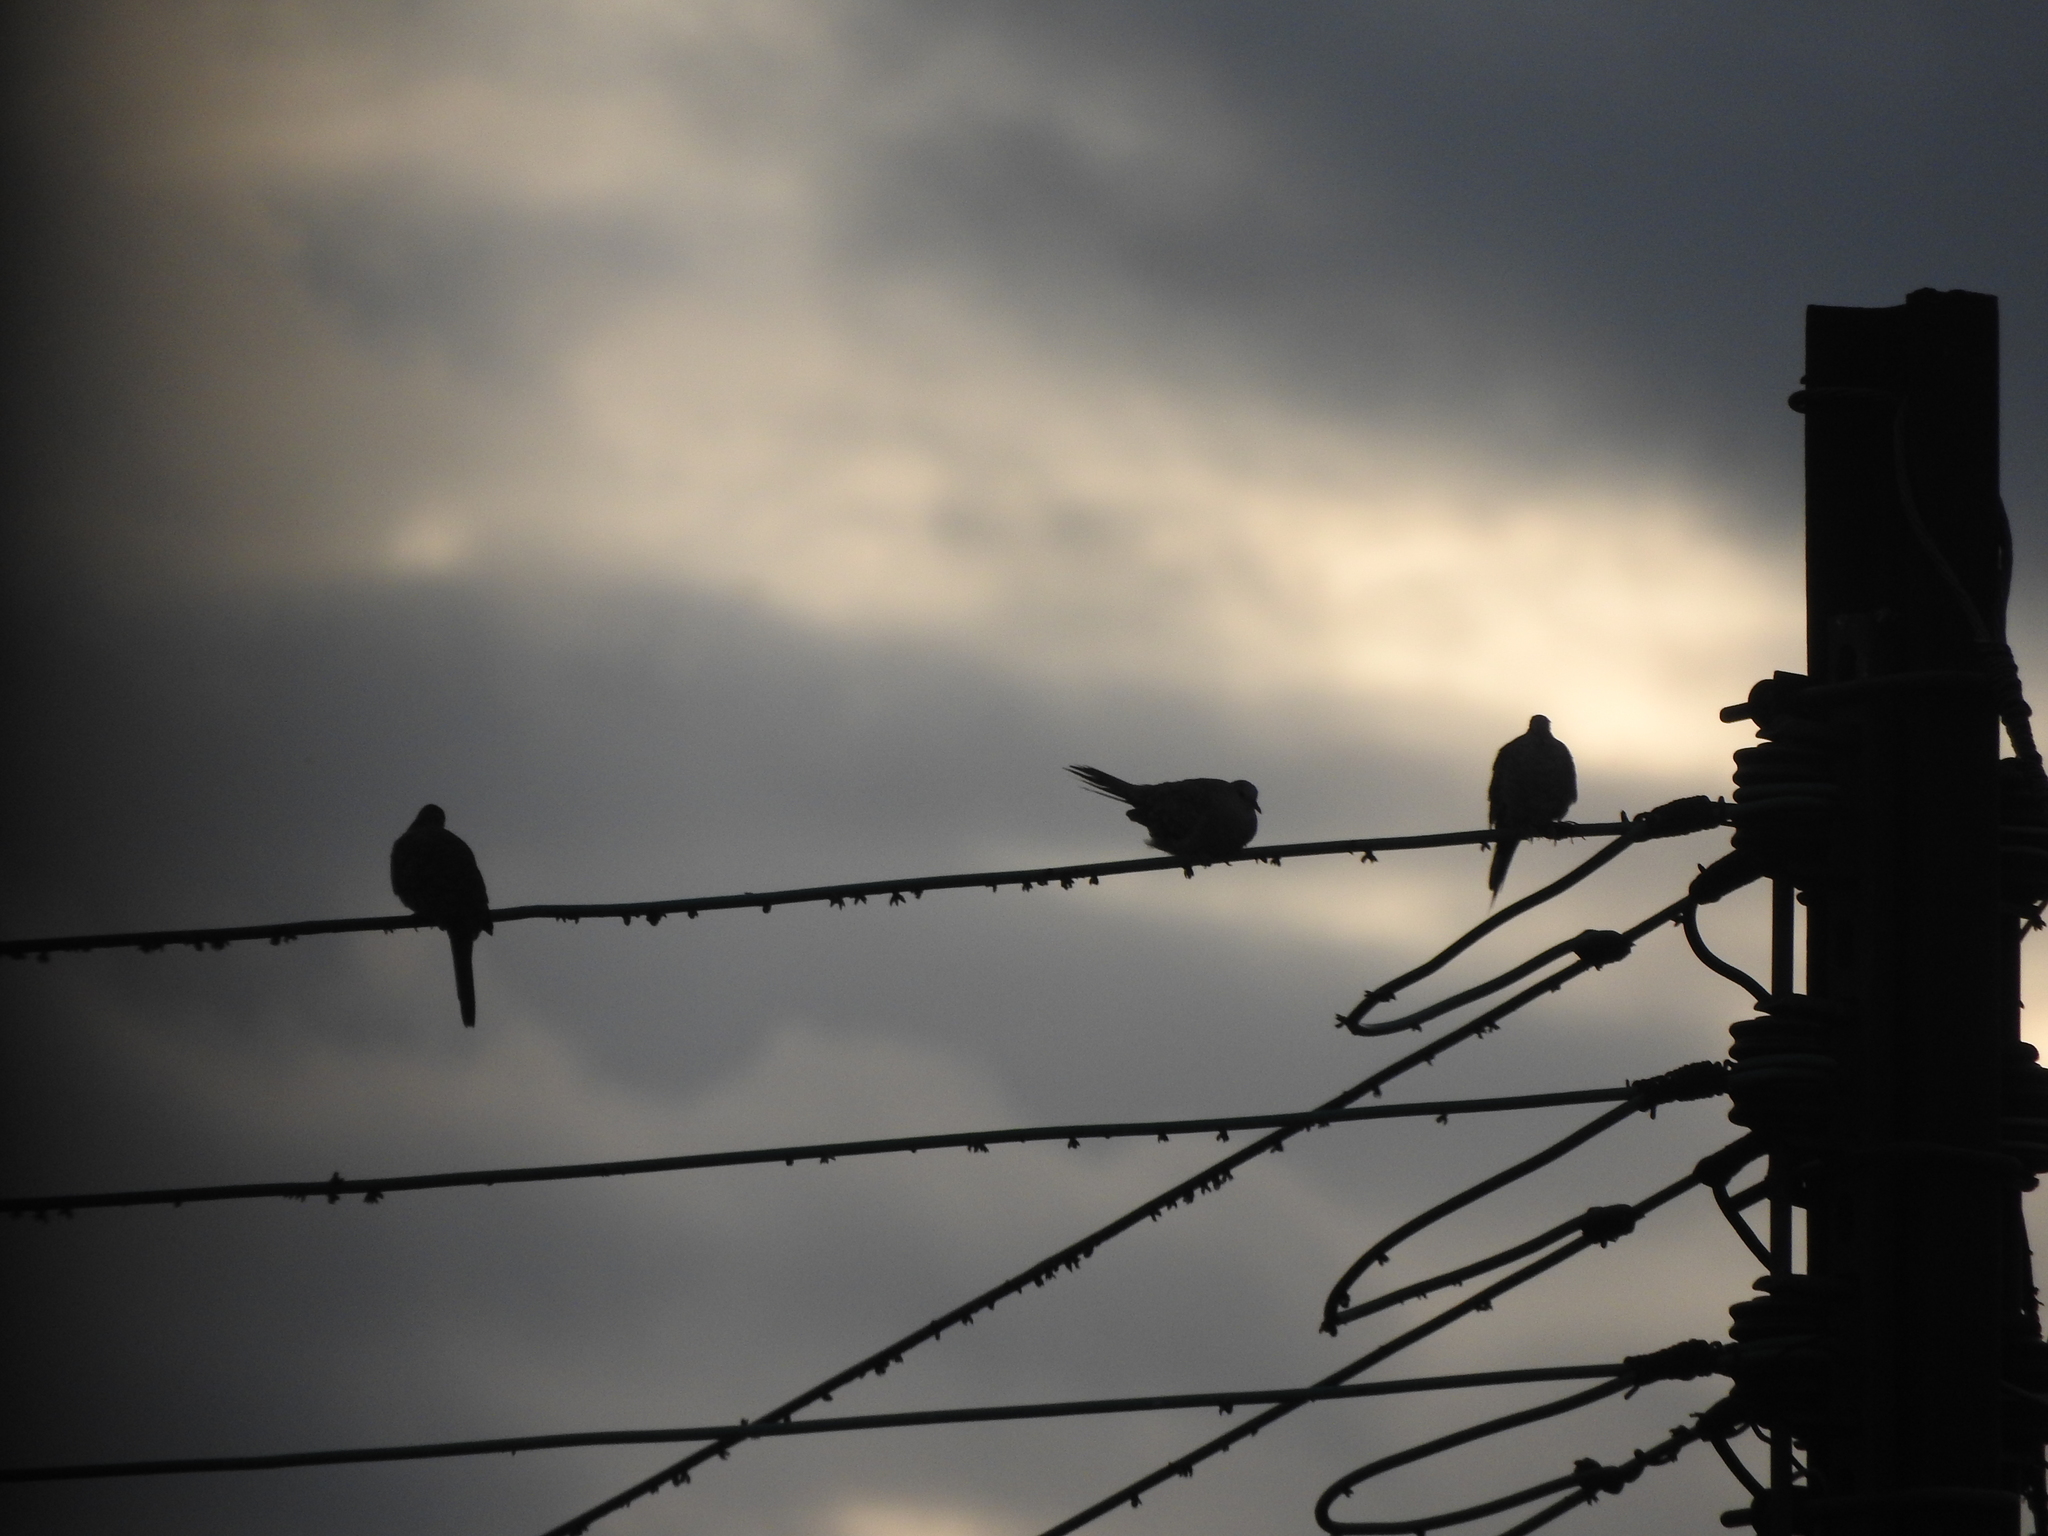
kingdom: Animalia
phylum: Chordata
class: Aves
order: Columbiformes
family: Columbidae
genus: Columbina
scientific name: Columbina inca
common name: Inca dove
